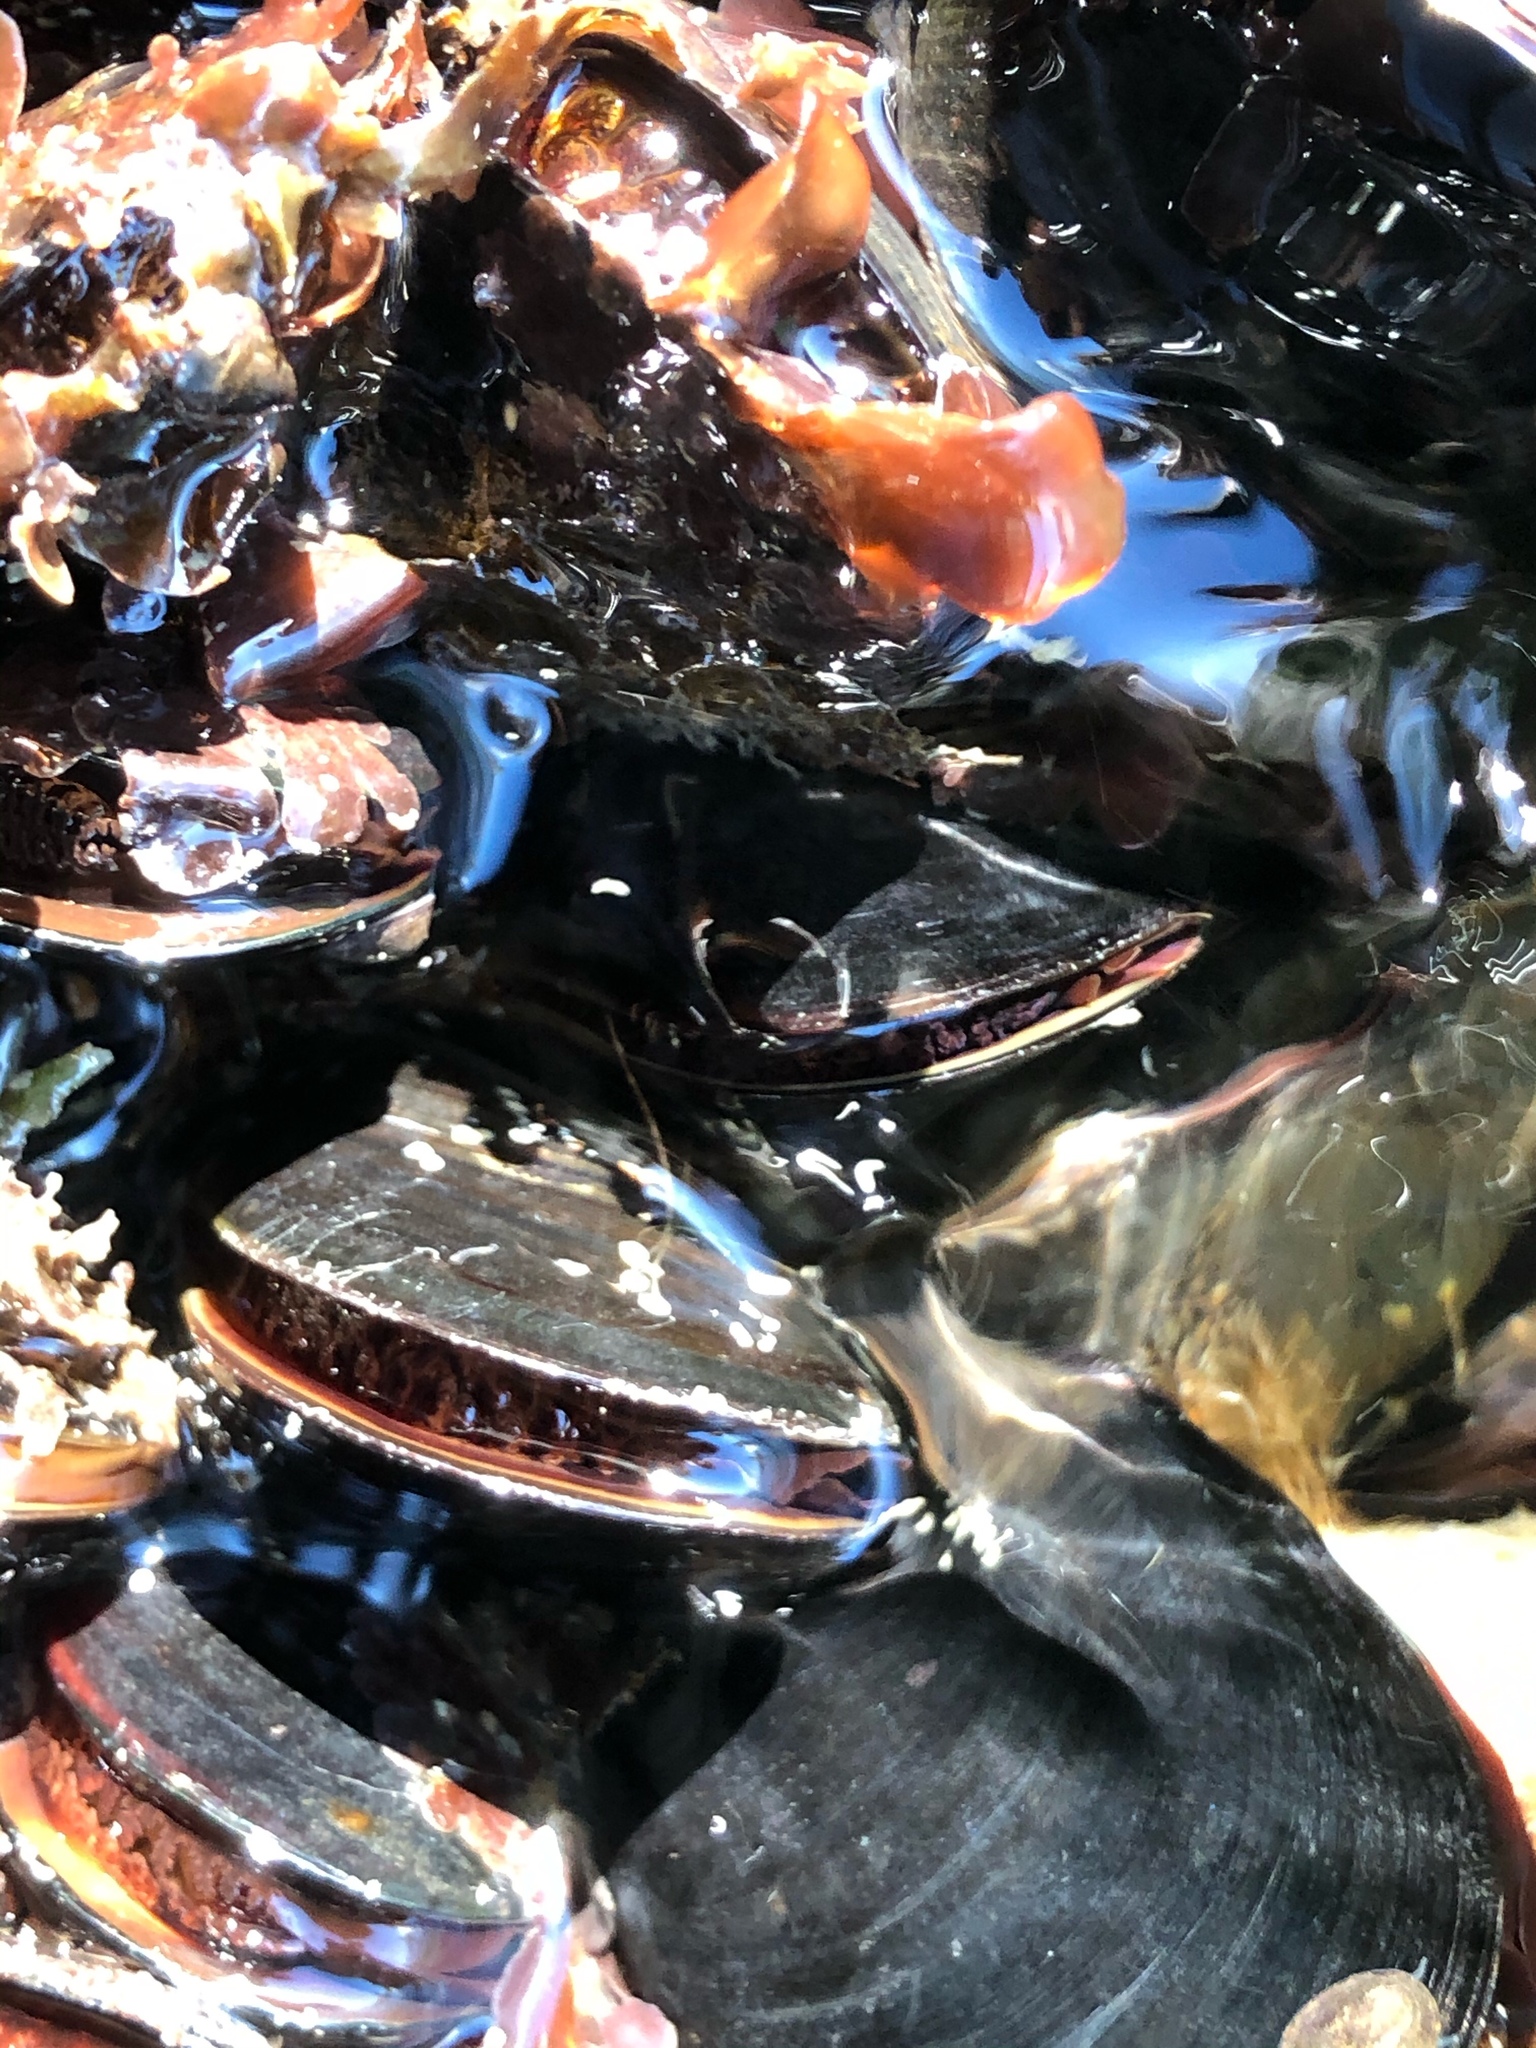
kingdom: Animalia
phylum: Mollusca
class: Bivalvia
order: Mytilida
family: Mytilidae
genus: Mytilus
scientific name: Mytilus
